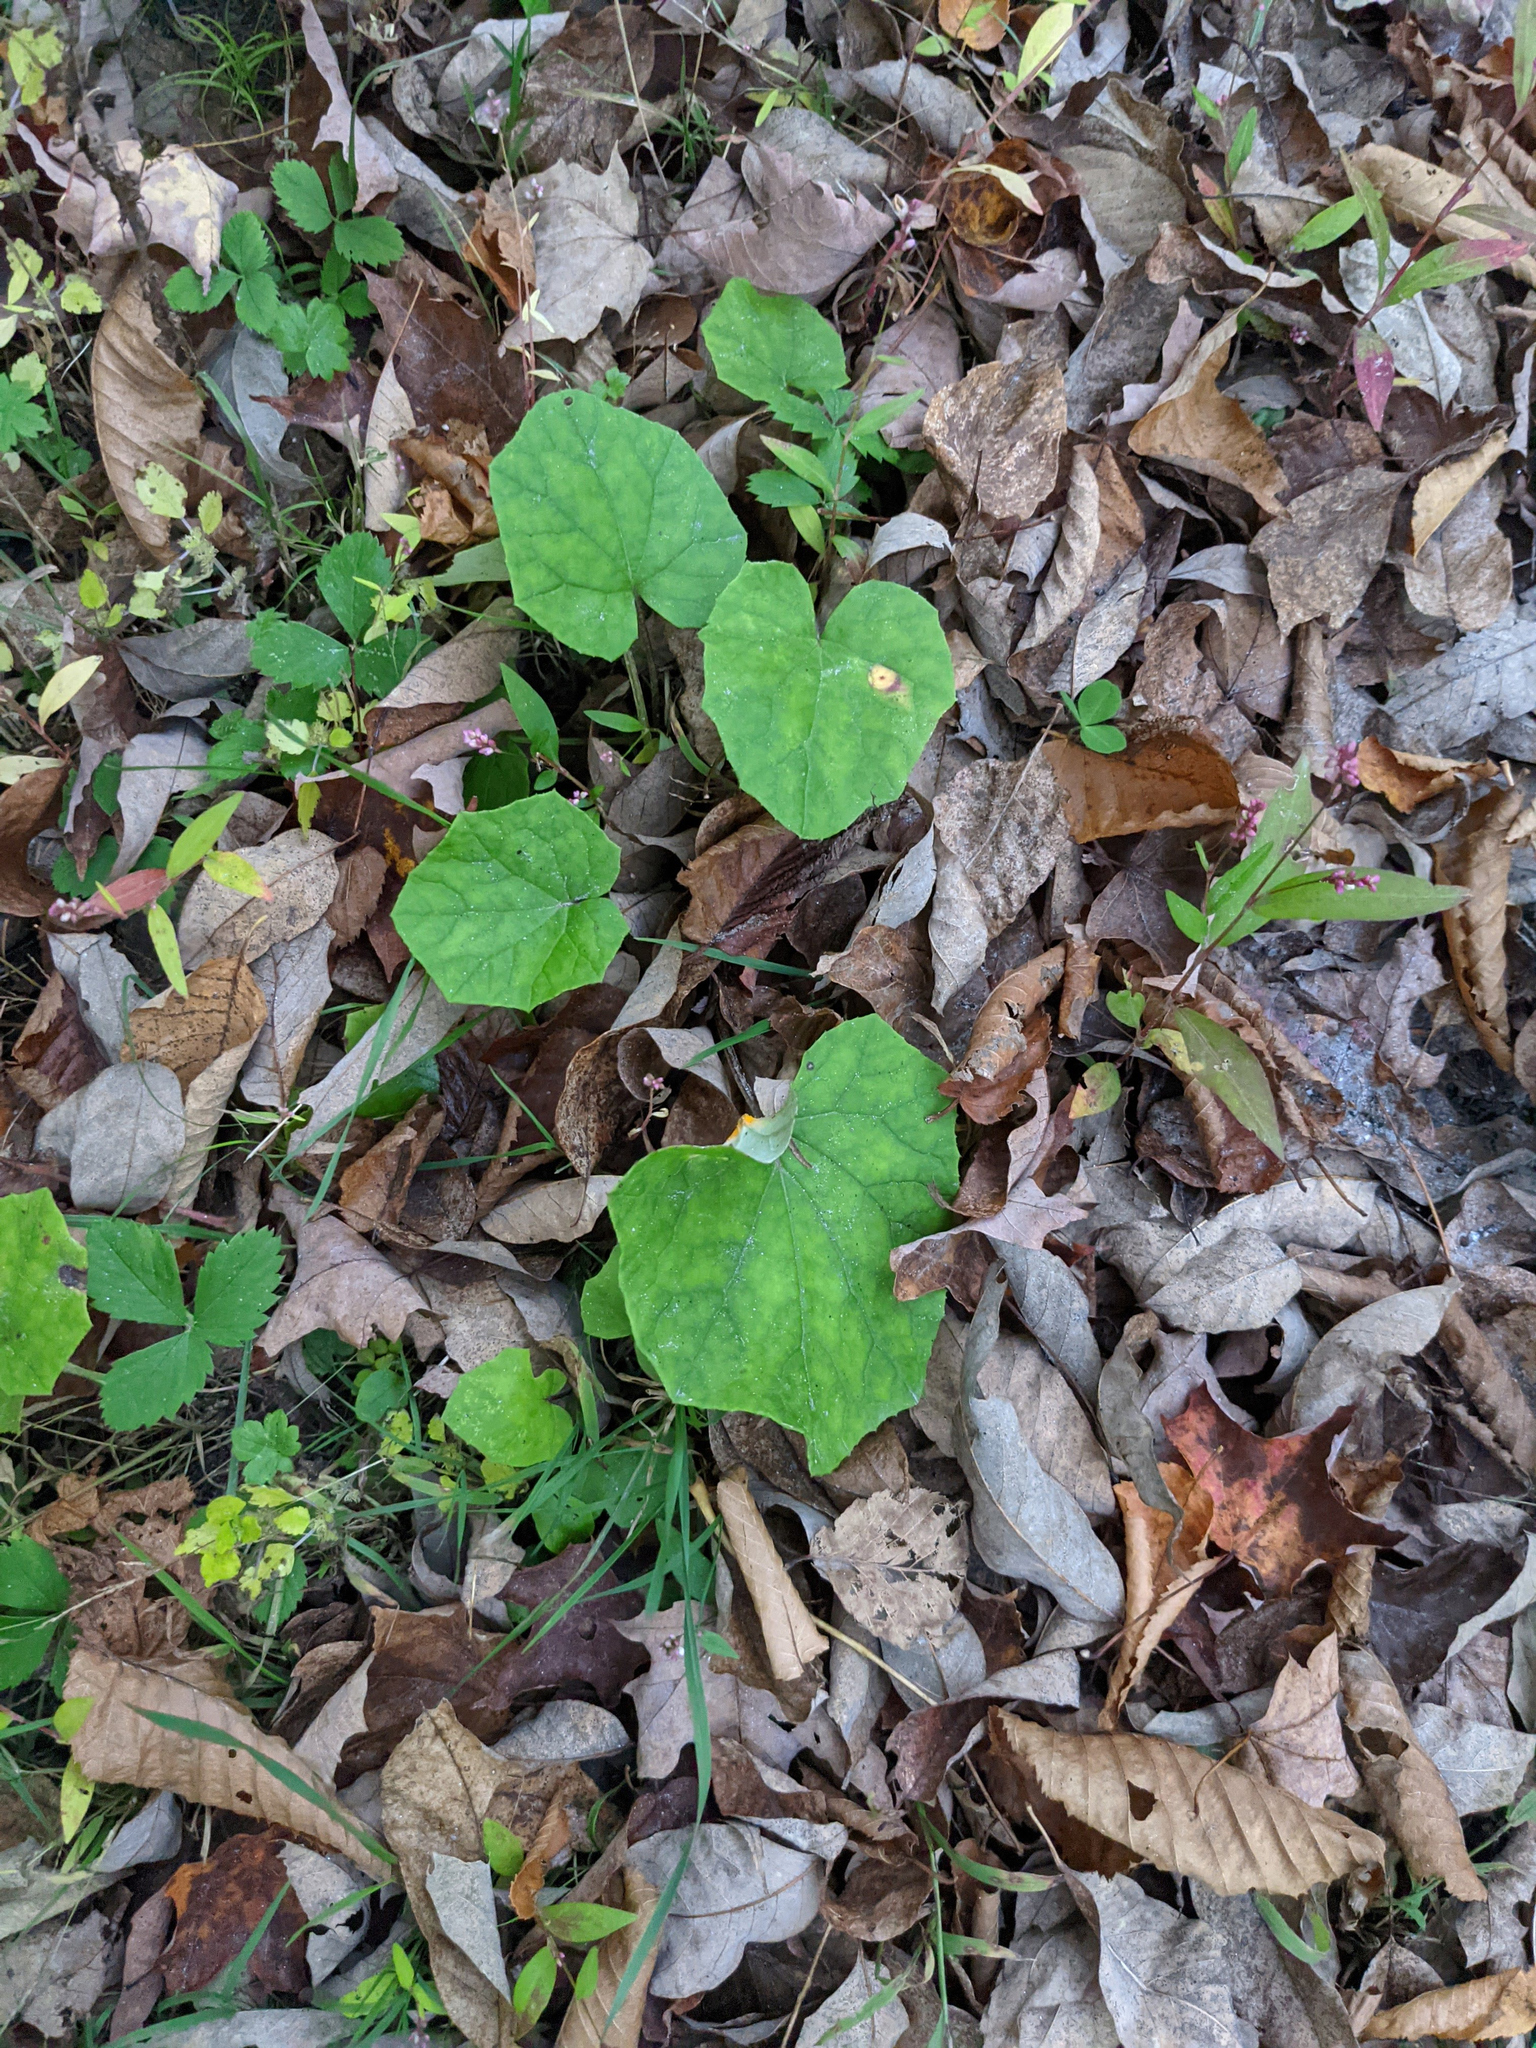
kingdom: Plantae
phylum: Tracheophyta
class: Magnoliopsida
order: Asterales
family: Asteraceae
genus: Tussilago
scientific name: Tussilago farfara
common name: Coltsfoot
